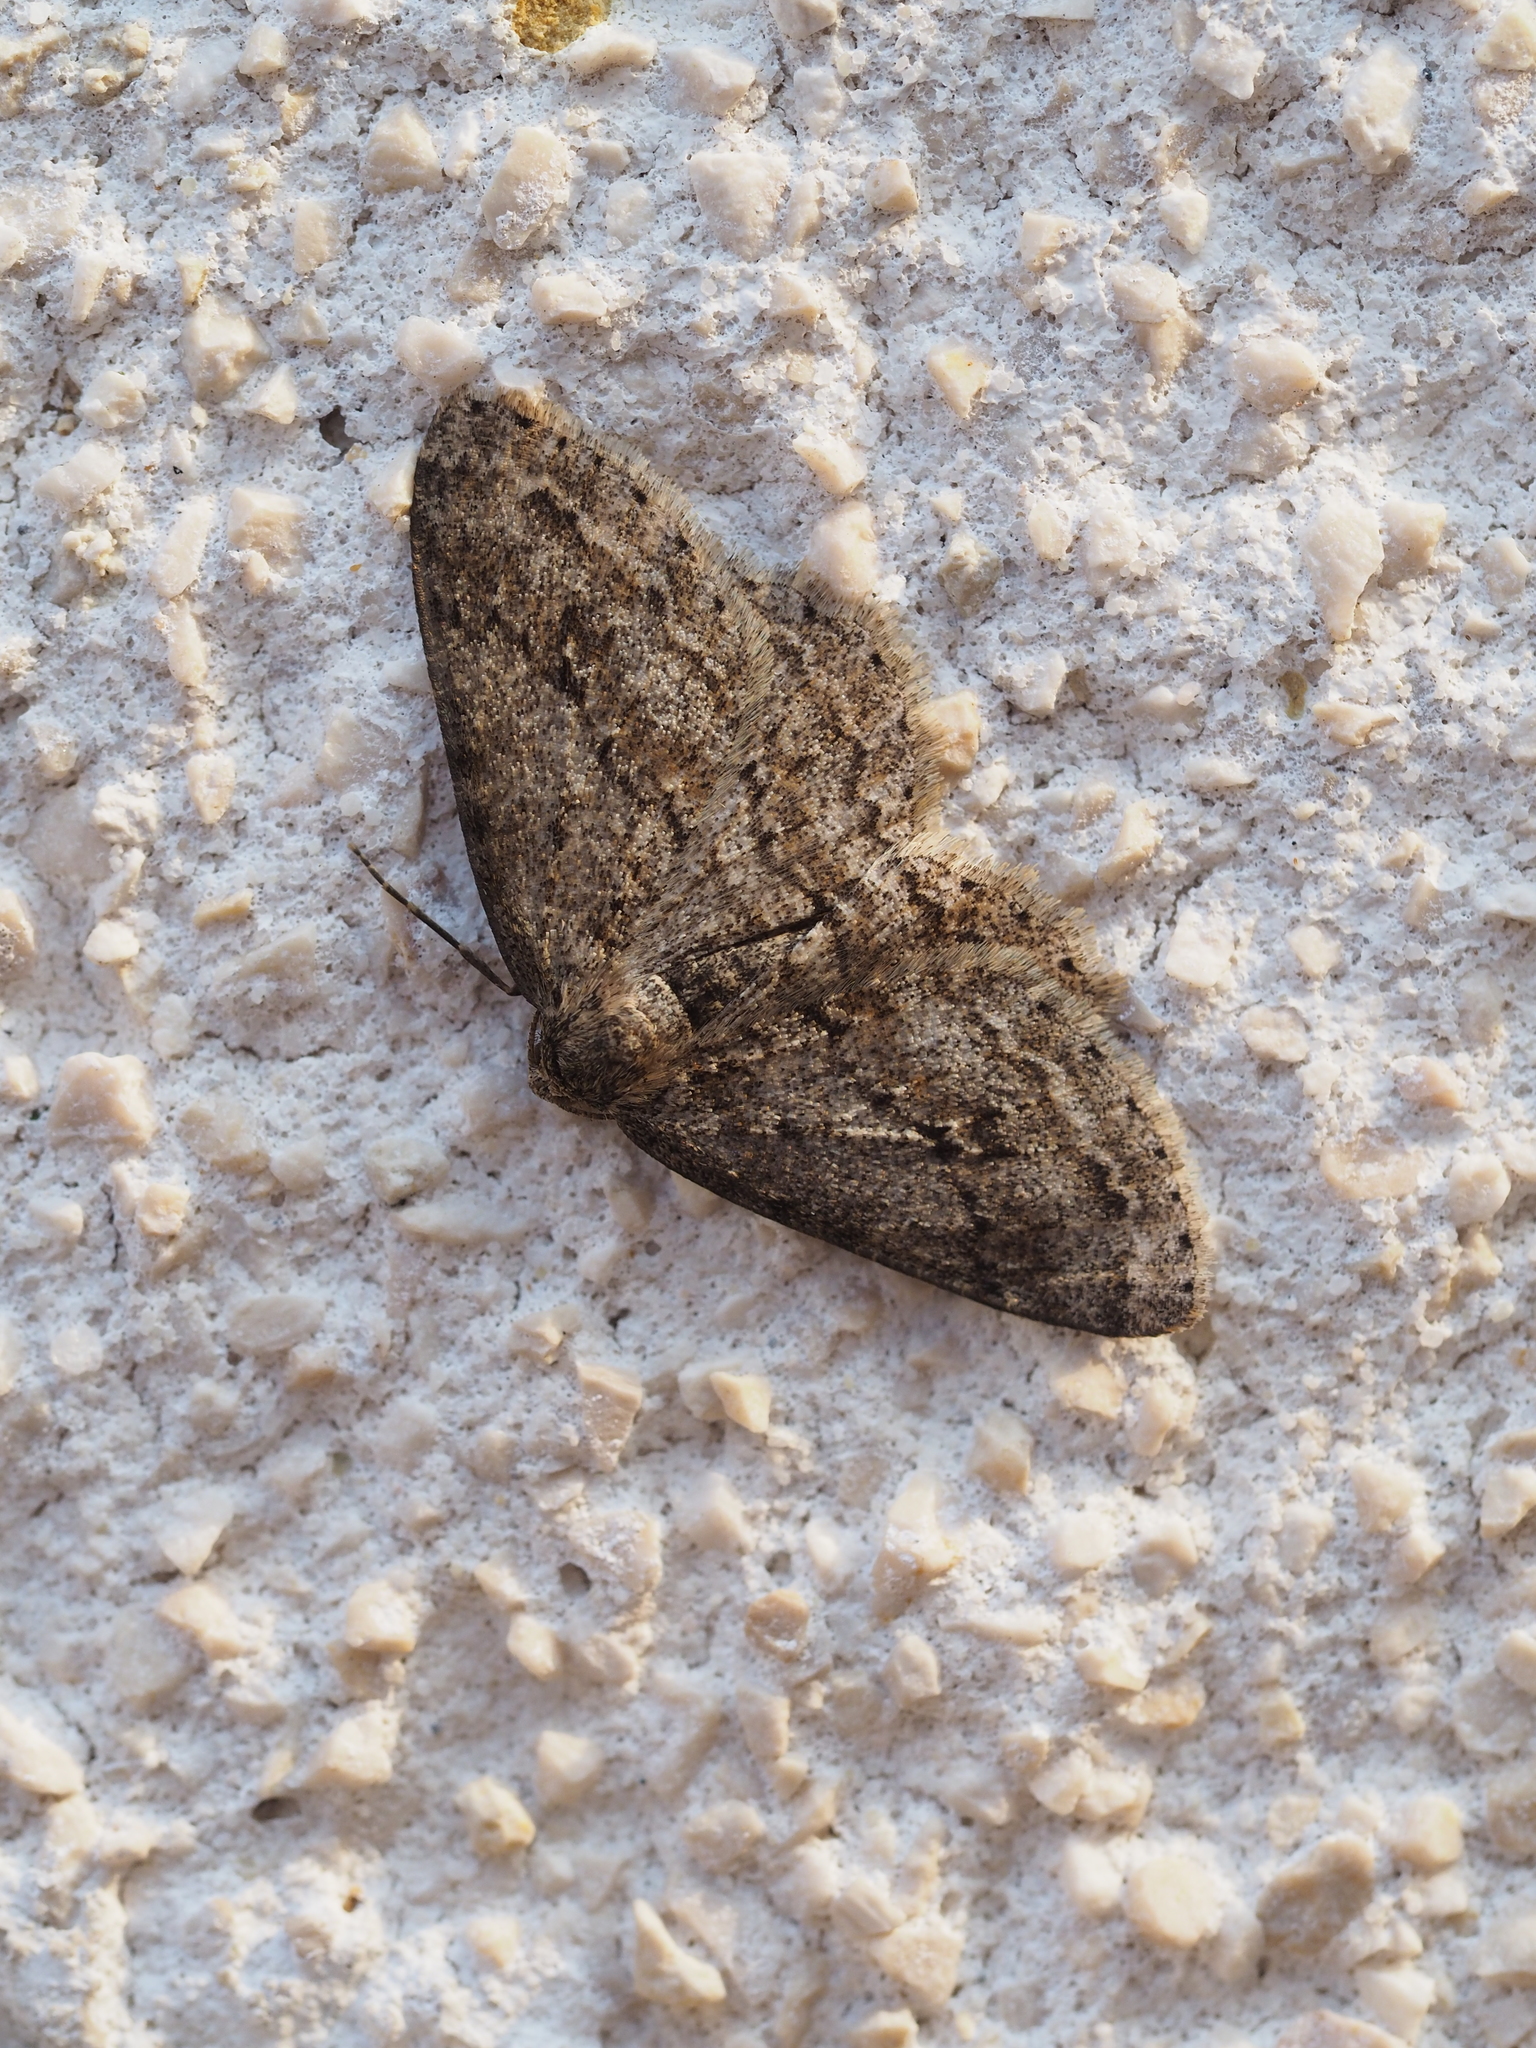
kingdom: Animalia
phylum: Arthropoda
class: Insecta
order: Lepidoptera
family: Geometridae
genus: Ectropis
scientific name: Ectropis crepuscularia
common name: Engrailed
